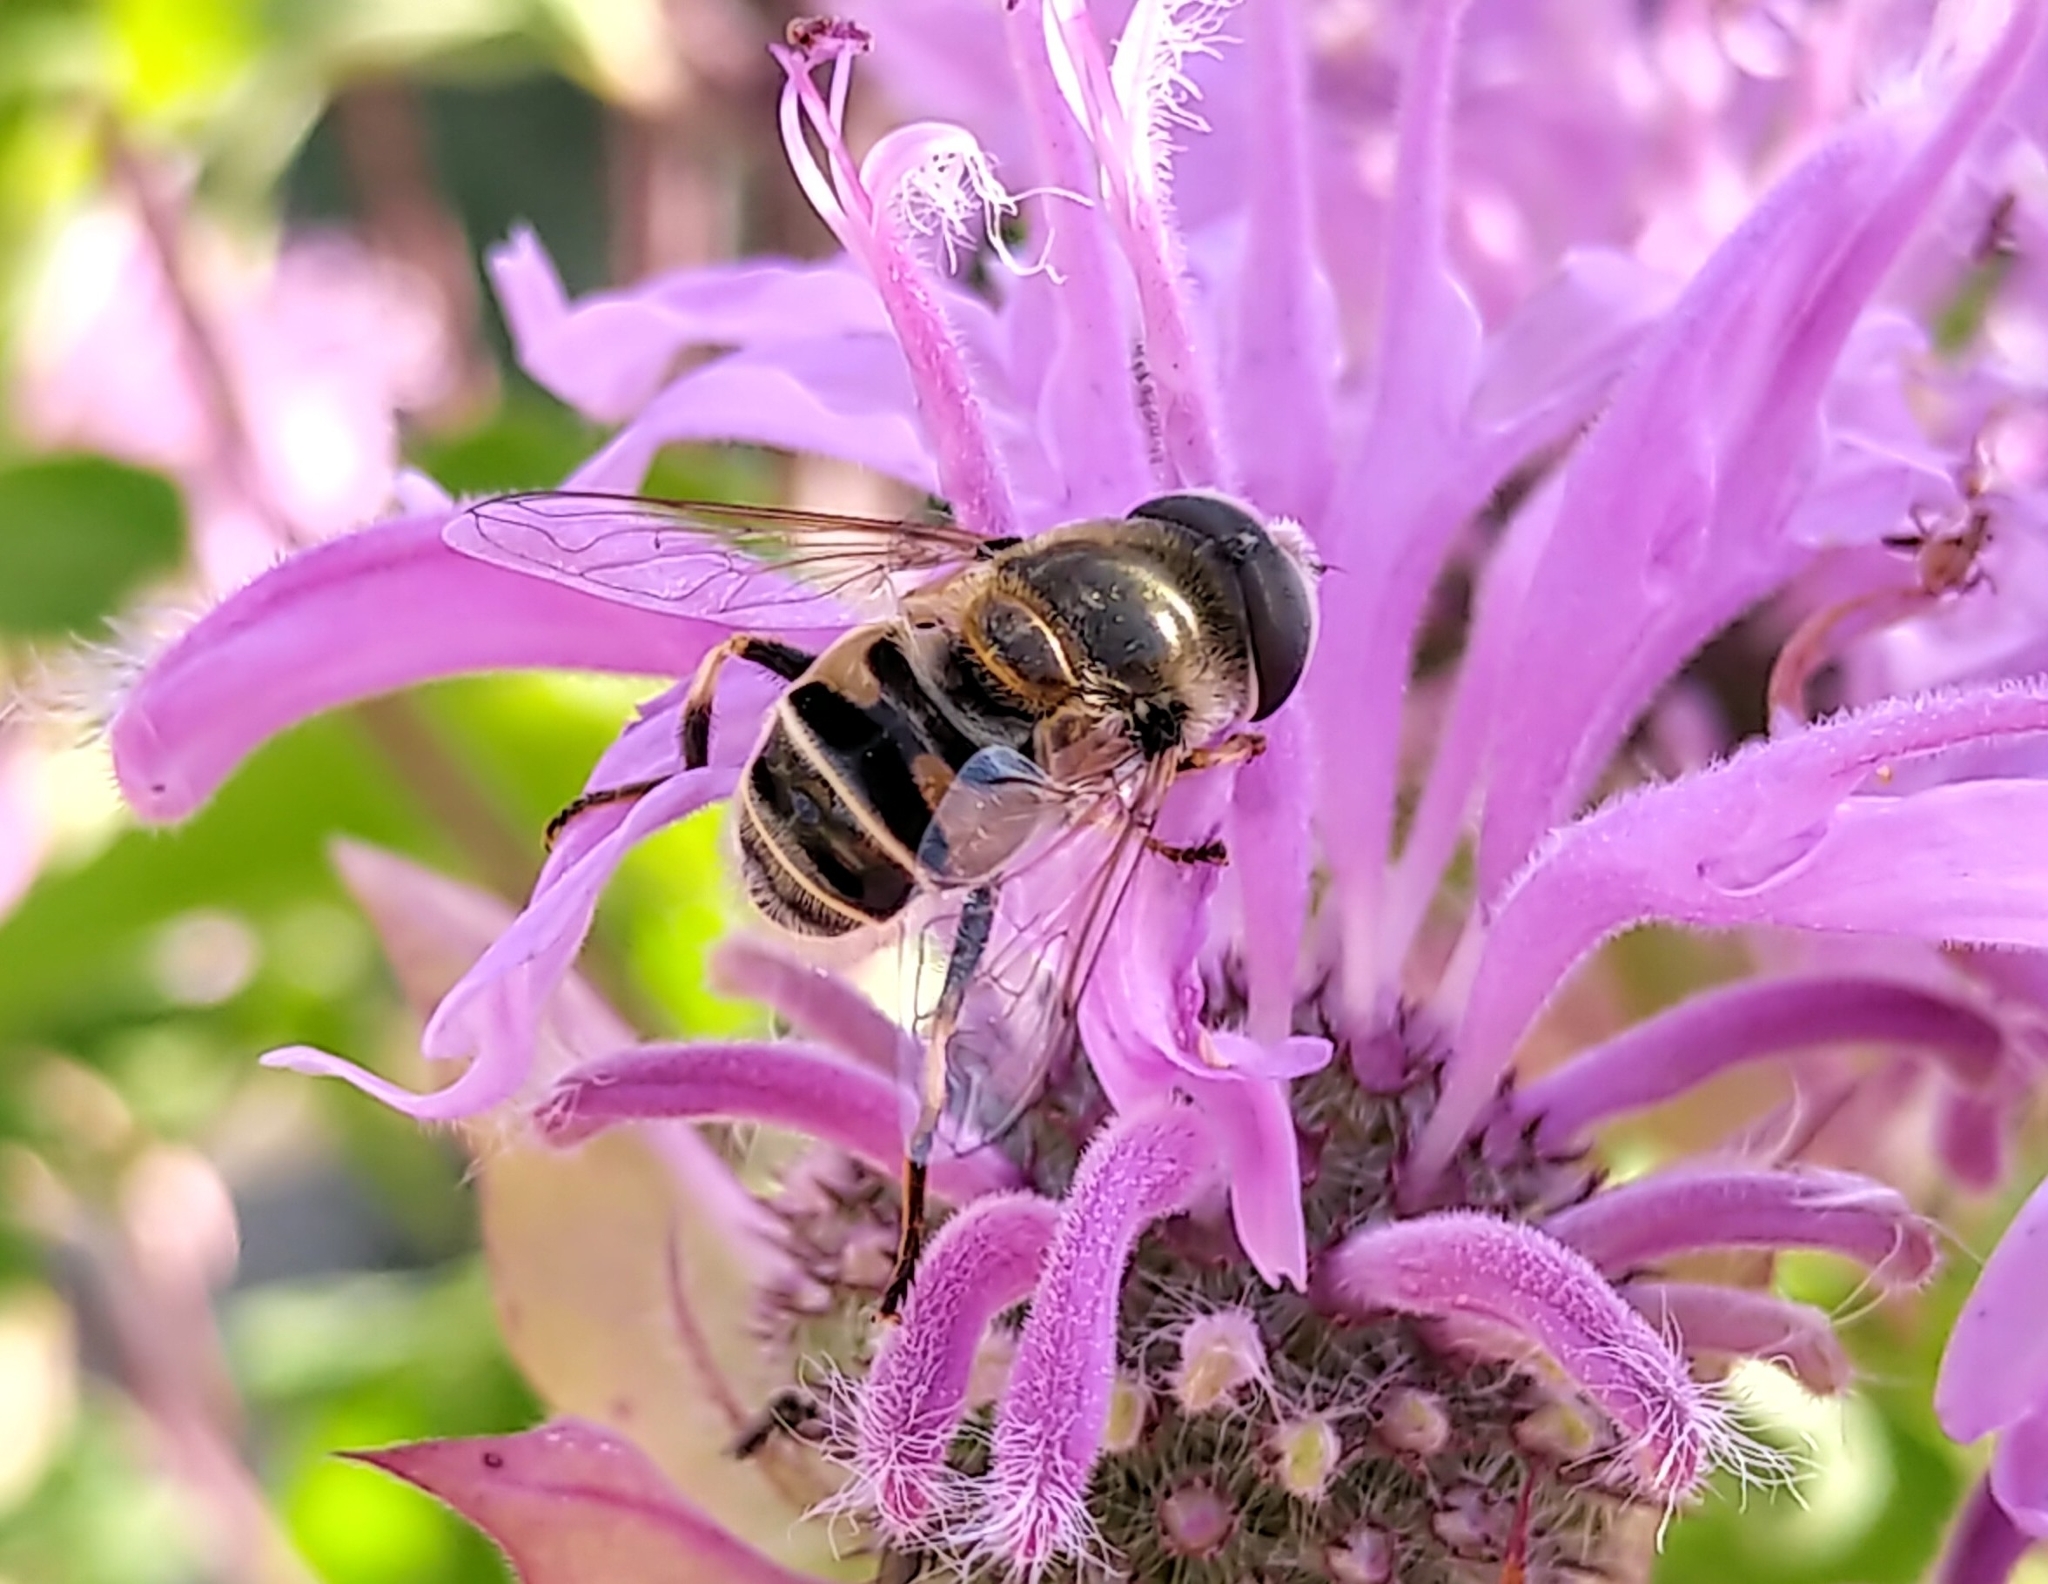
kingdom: Animalia
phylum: Arthropoda
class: Insecta
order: Diptera
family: Syrphidae
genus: Eristalis
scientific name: Eristalis stipator
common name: Yellow-shouldered drone fly
